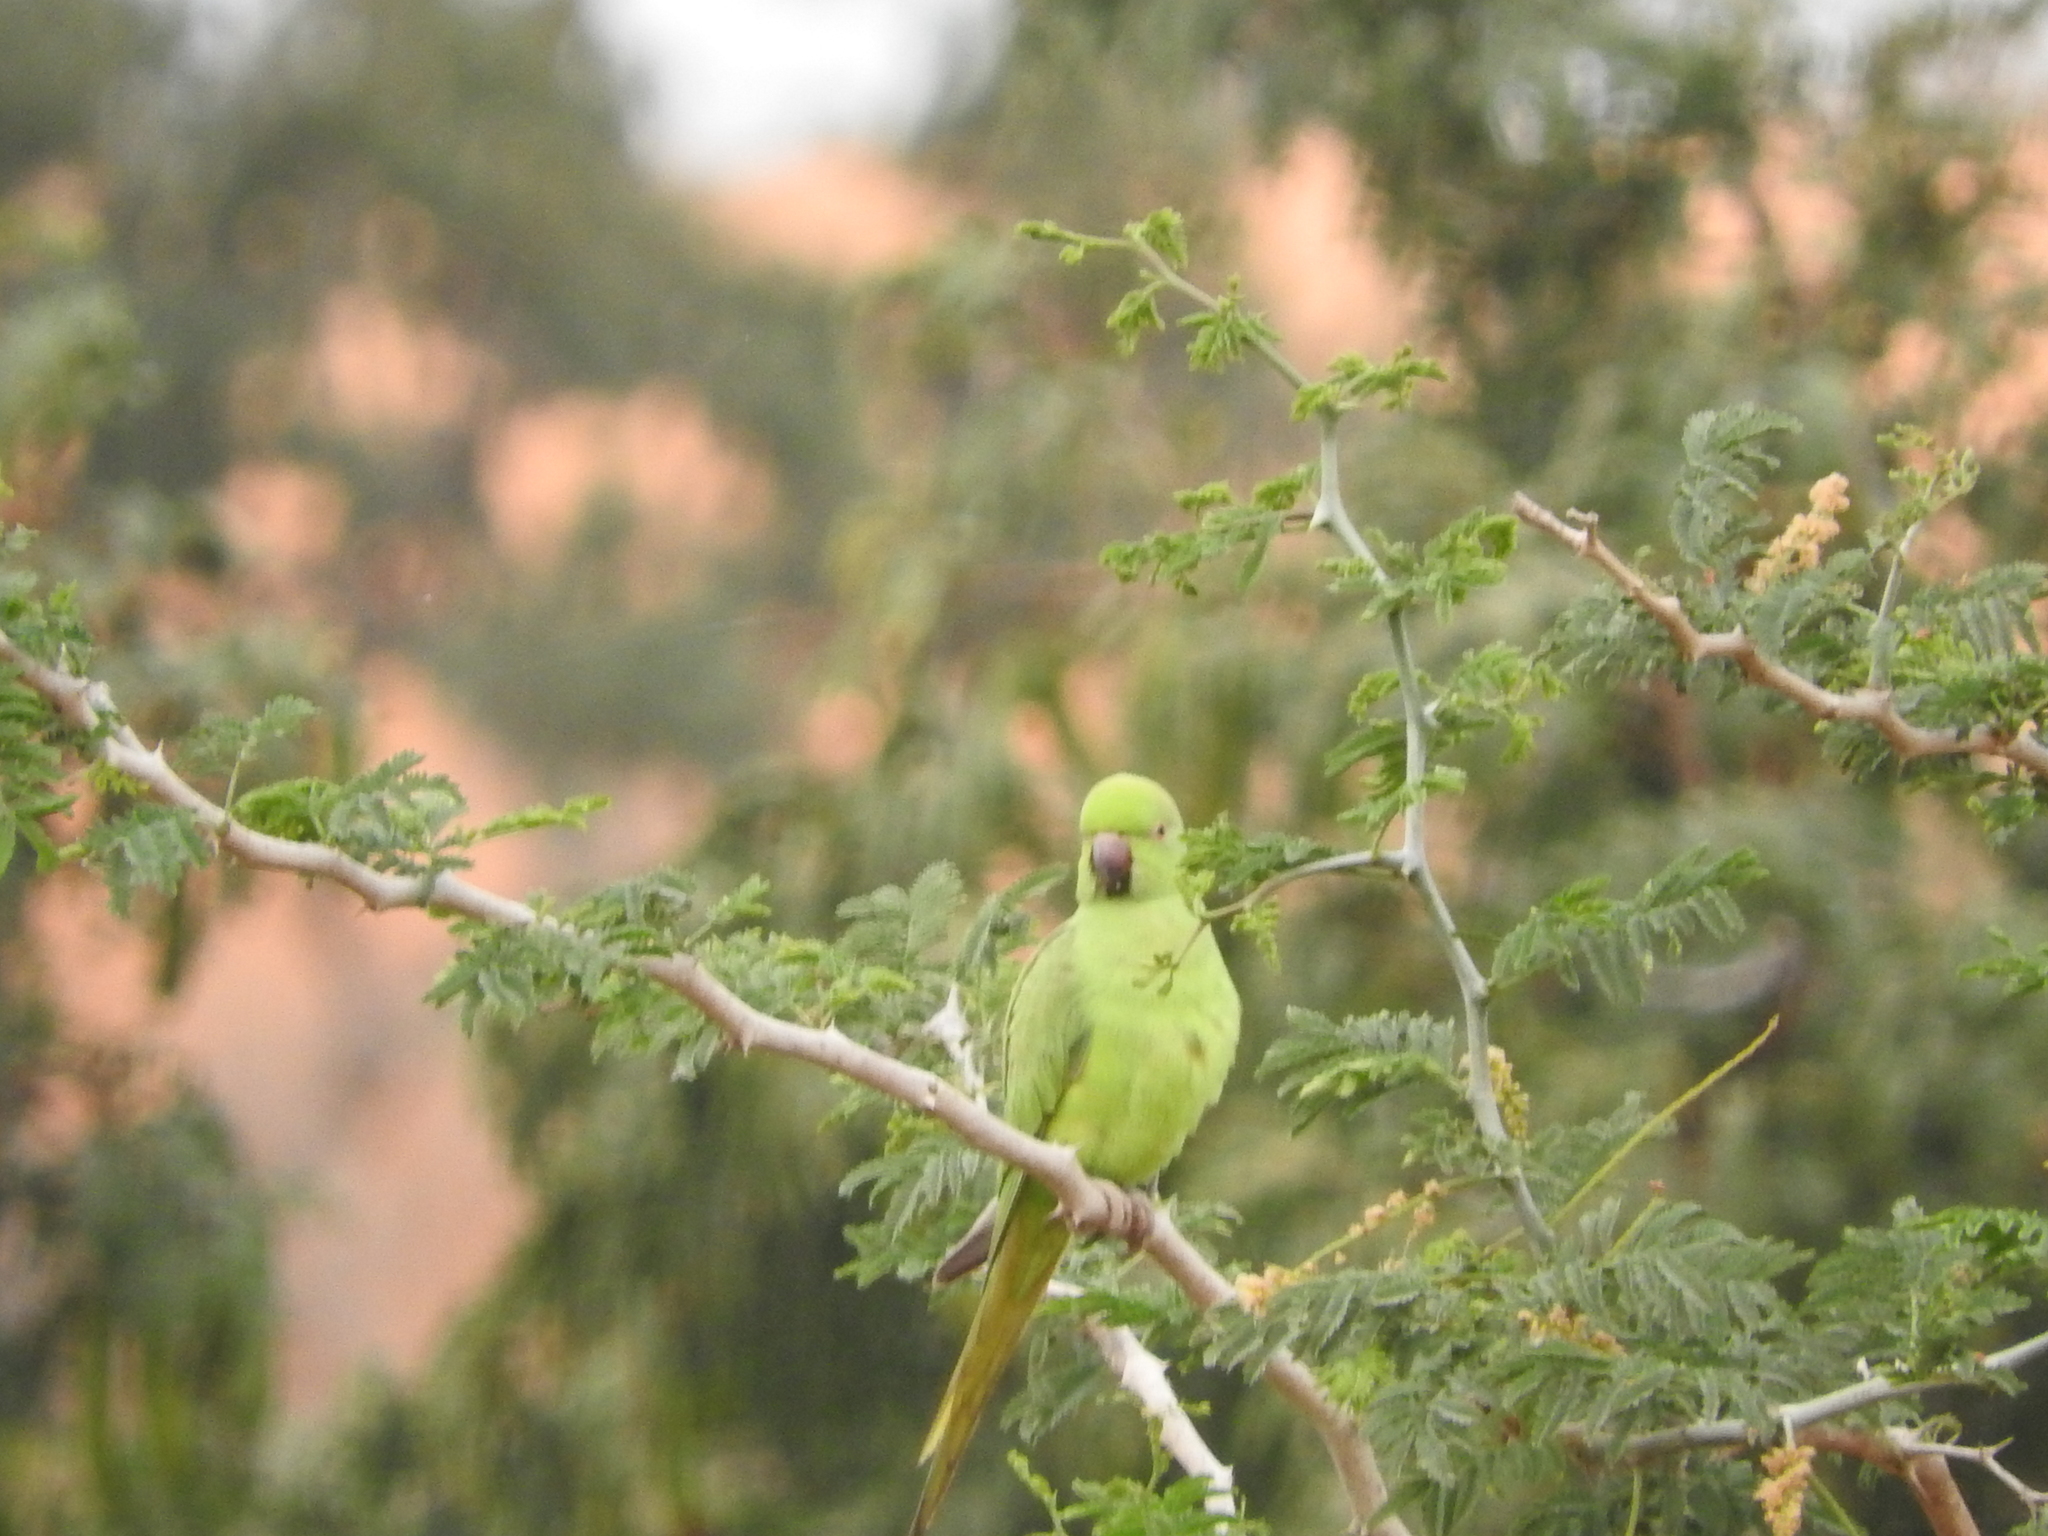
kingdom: Animalia
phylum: Chordata
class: Aves
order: Psittaciformes
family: Psittacidae
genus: Psittacula
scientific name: Psittacula krameri
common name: Rose-ringed parakeet
